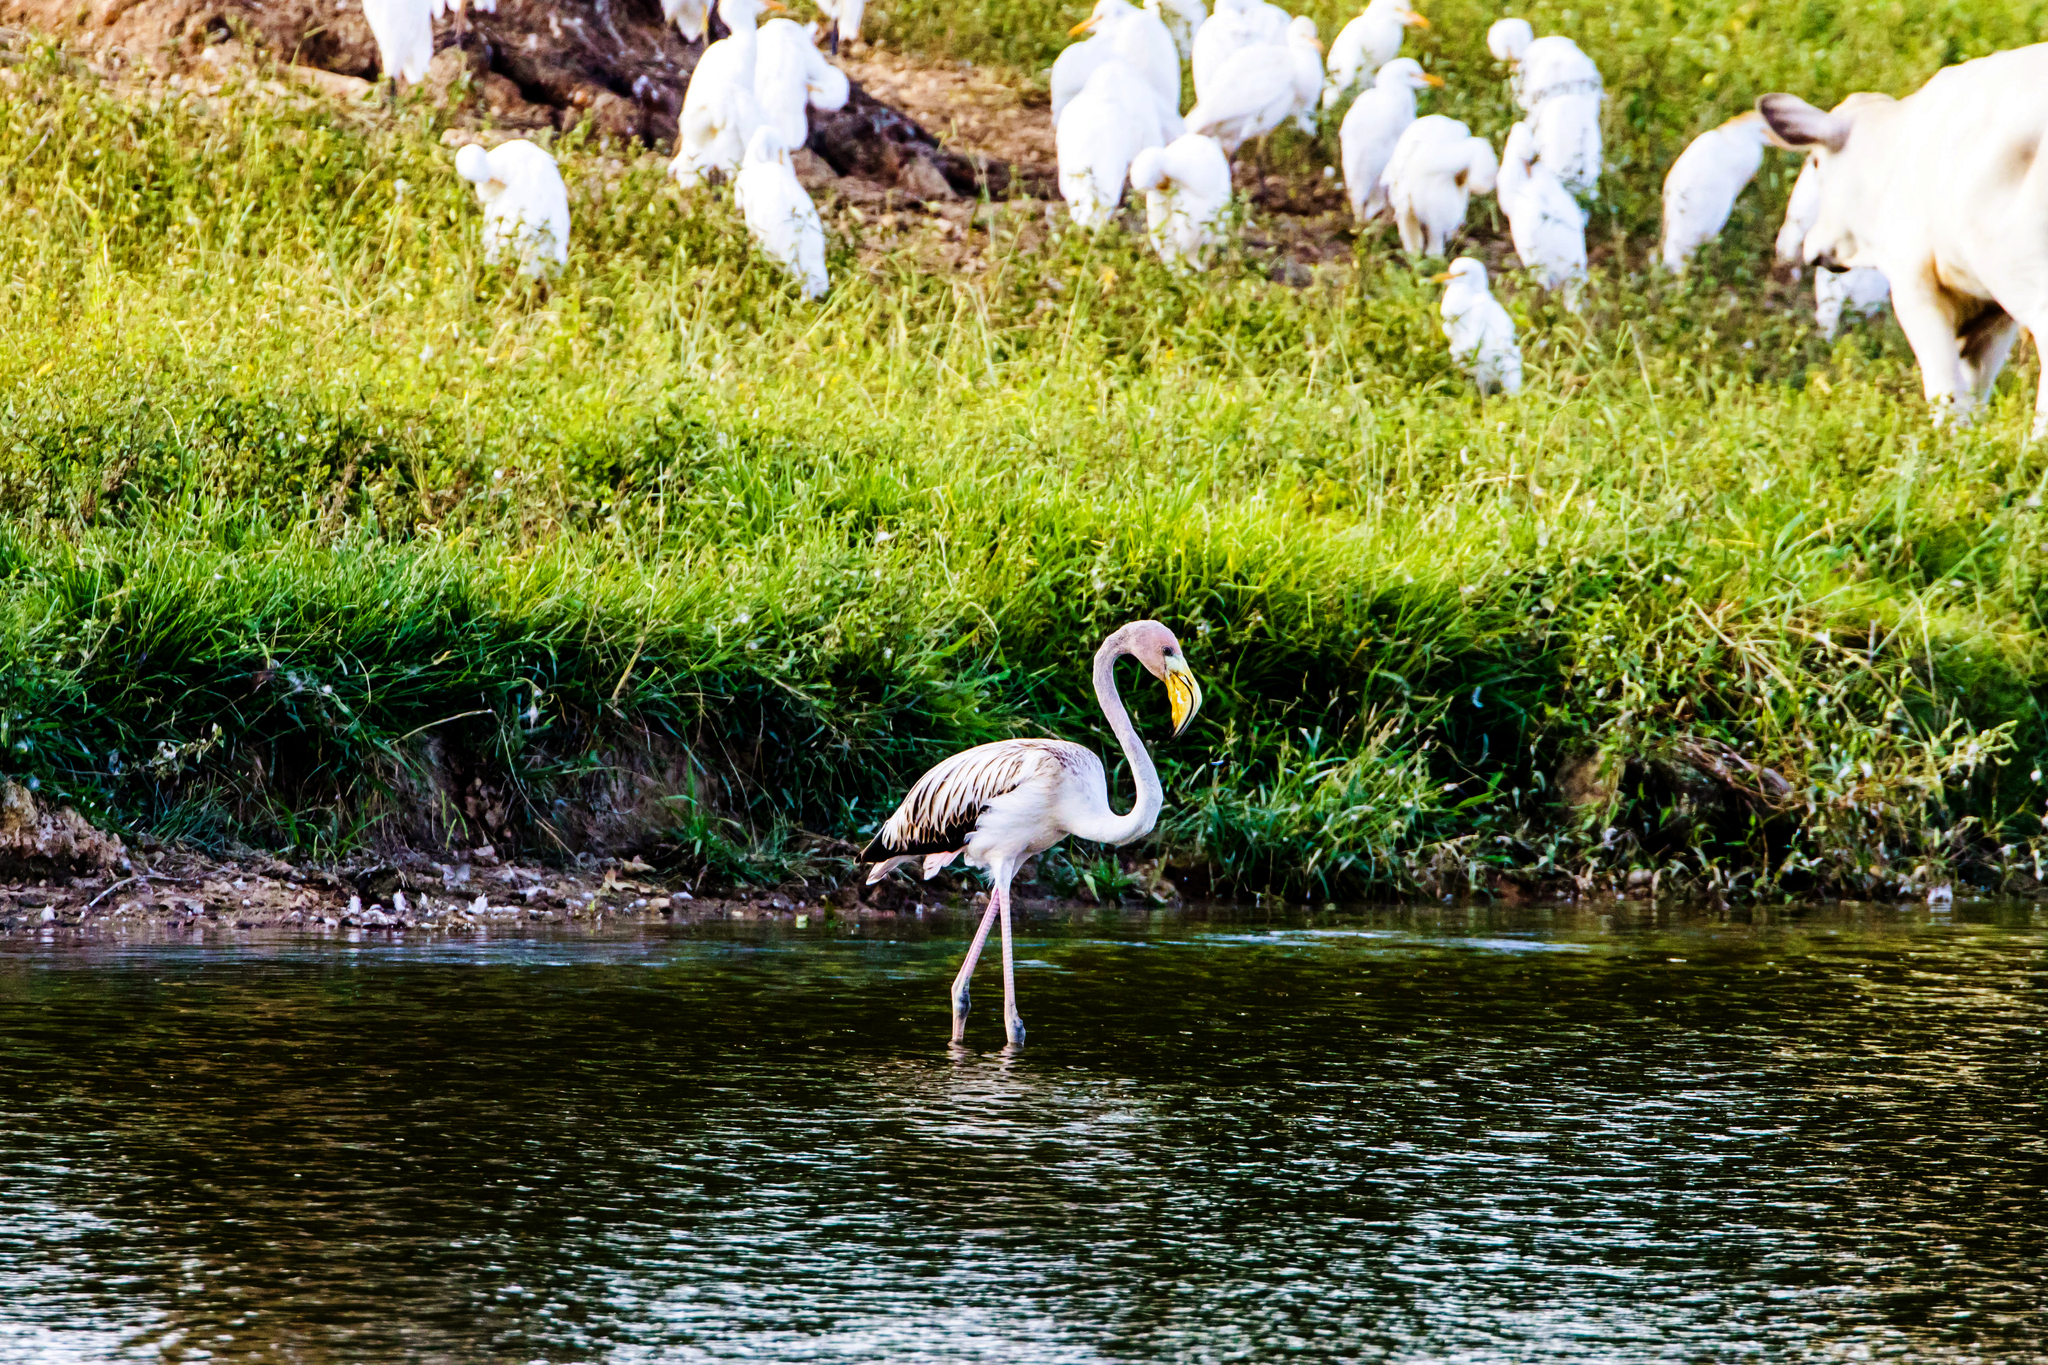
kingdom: Animalia
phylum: Chordata
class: Aves
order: Phoenicopteriformes
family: Phoenicopteridae
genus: Phoenicopterus
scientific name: Phoenicopterus ruber
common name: American flamingo
